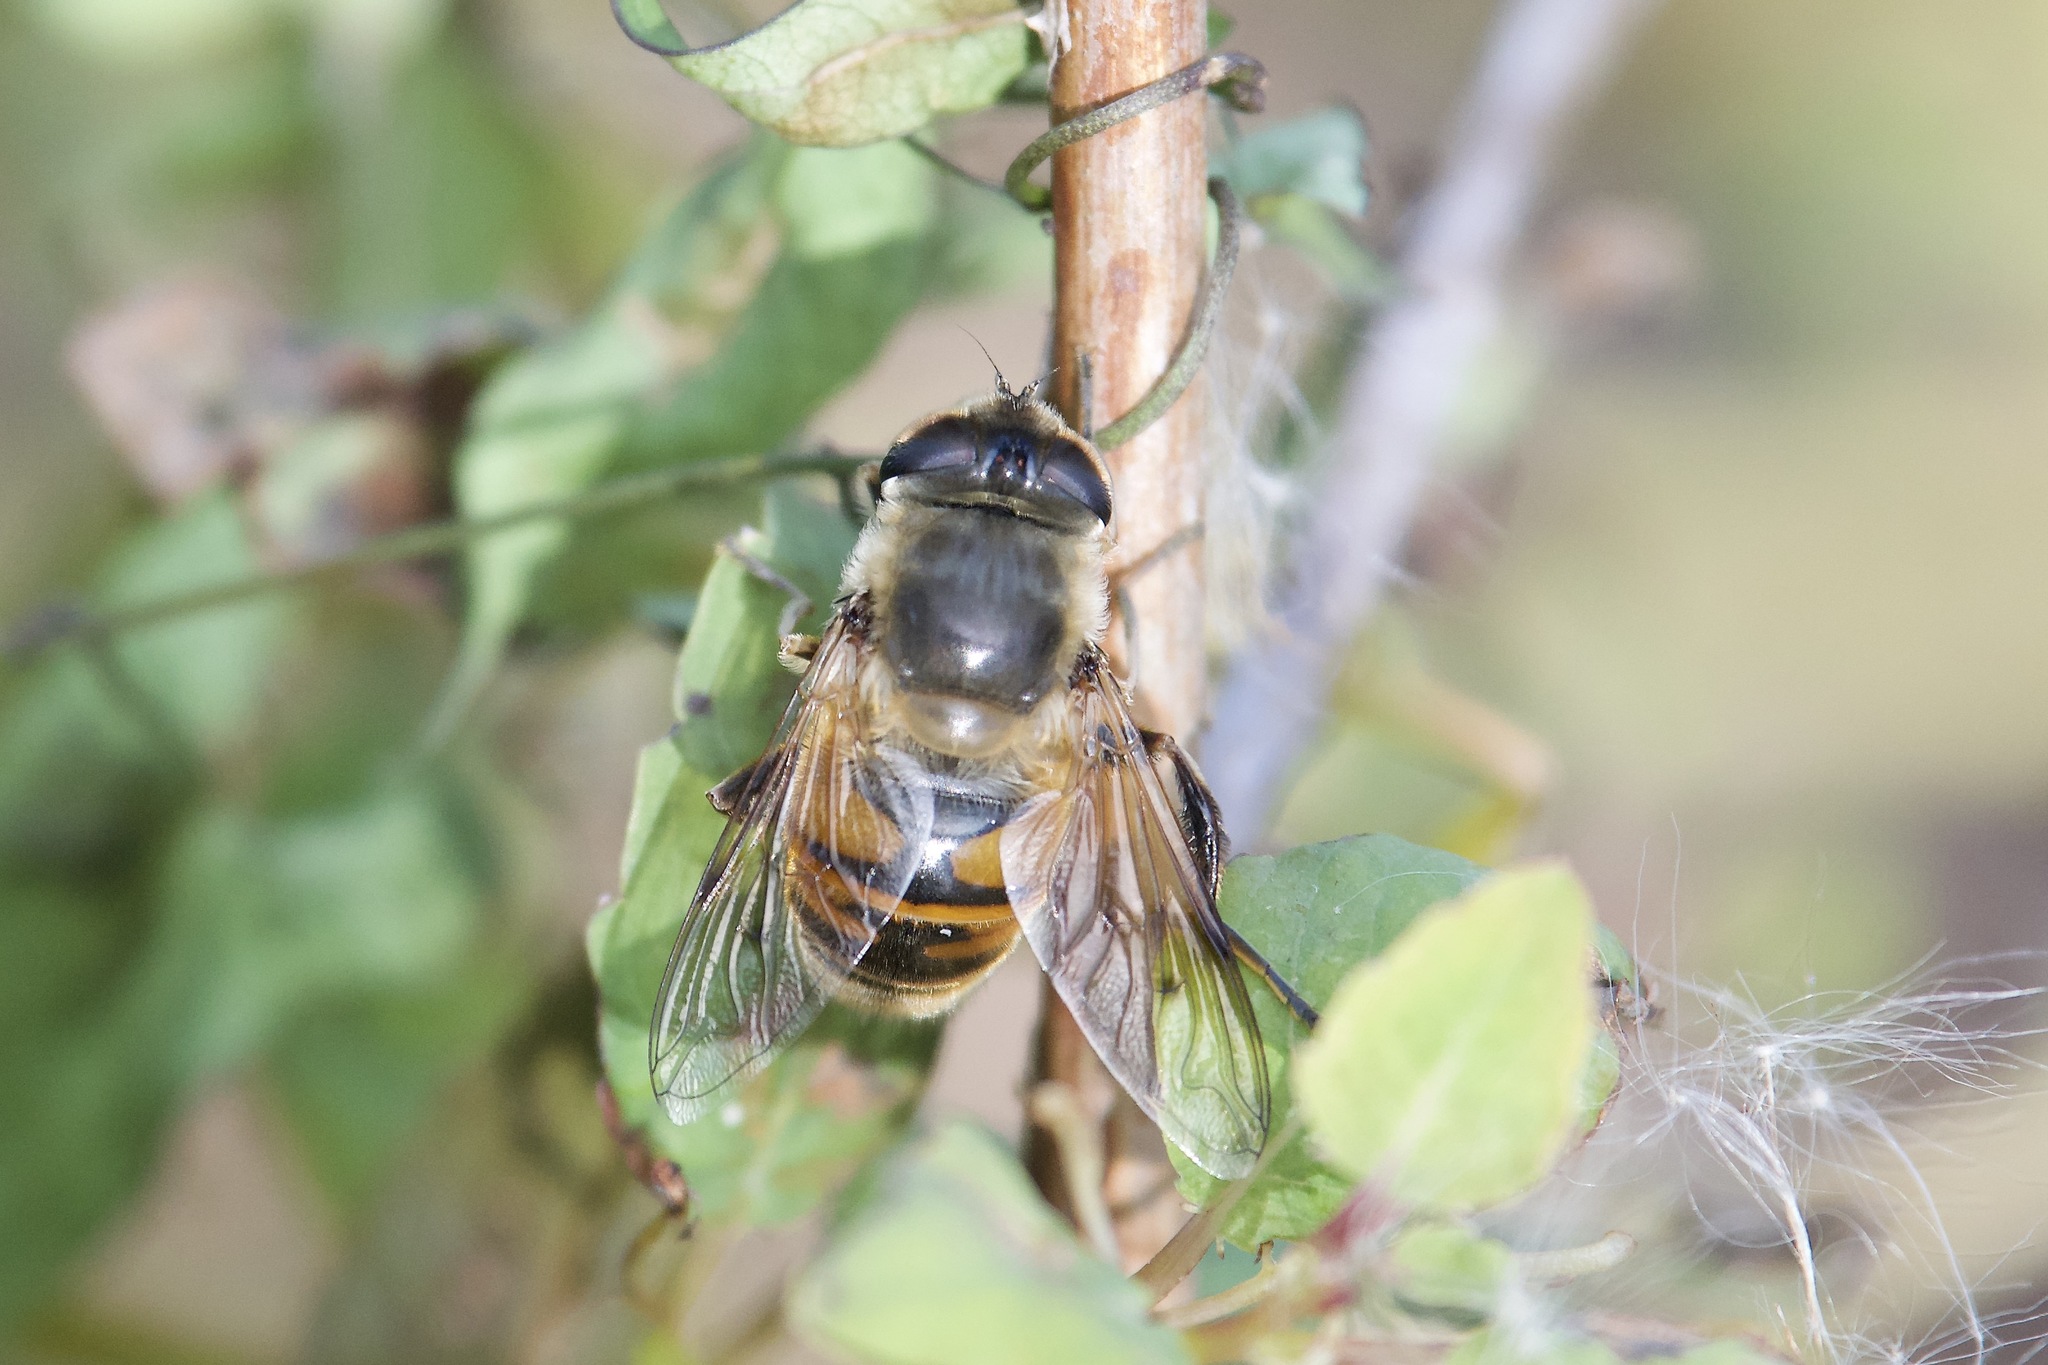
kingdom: Animalia
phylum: Arthropoda
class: Insecta
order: Diptera
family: Syrphidae
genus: Eristalis
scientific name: Eristalis tenax
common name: Drone fly
